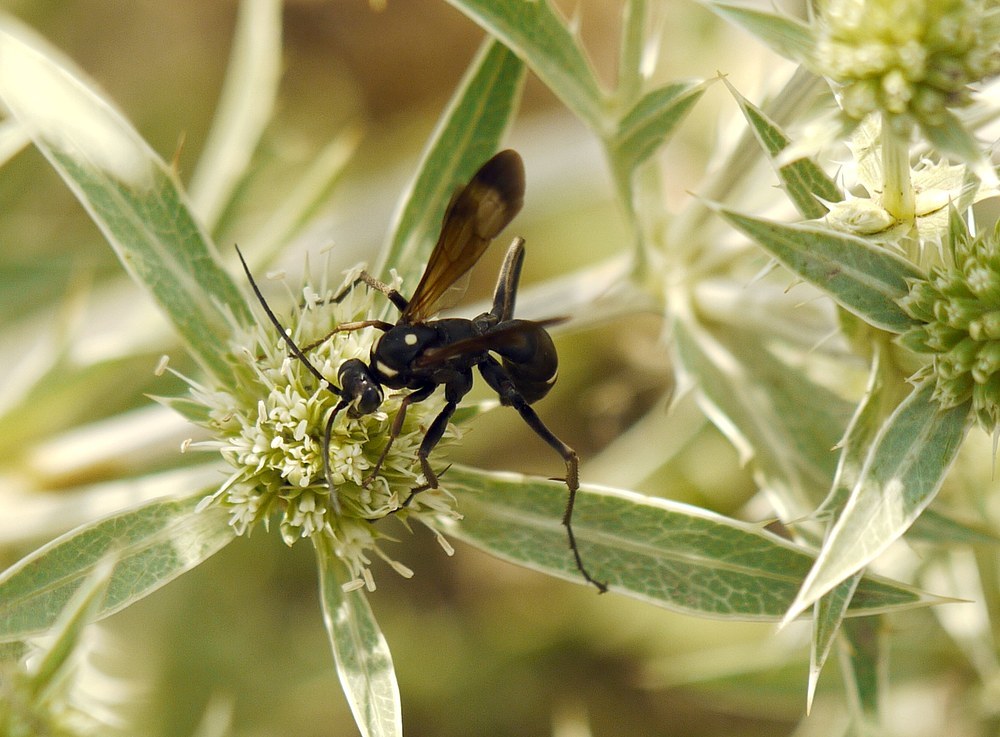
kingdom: Animalia
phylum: Arthropoda
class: Insecta
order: Hymenoptera
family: Pompilidae
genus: Cryptocheilus
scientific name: Cryptocheilus egregius
